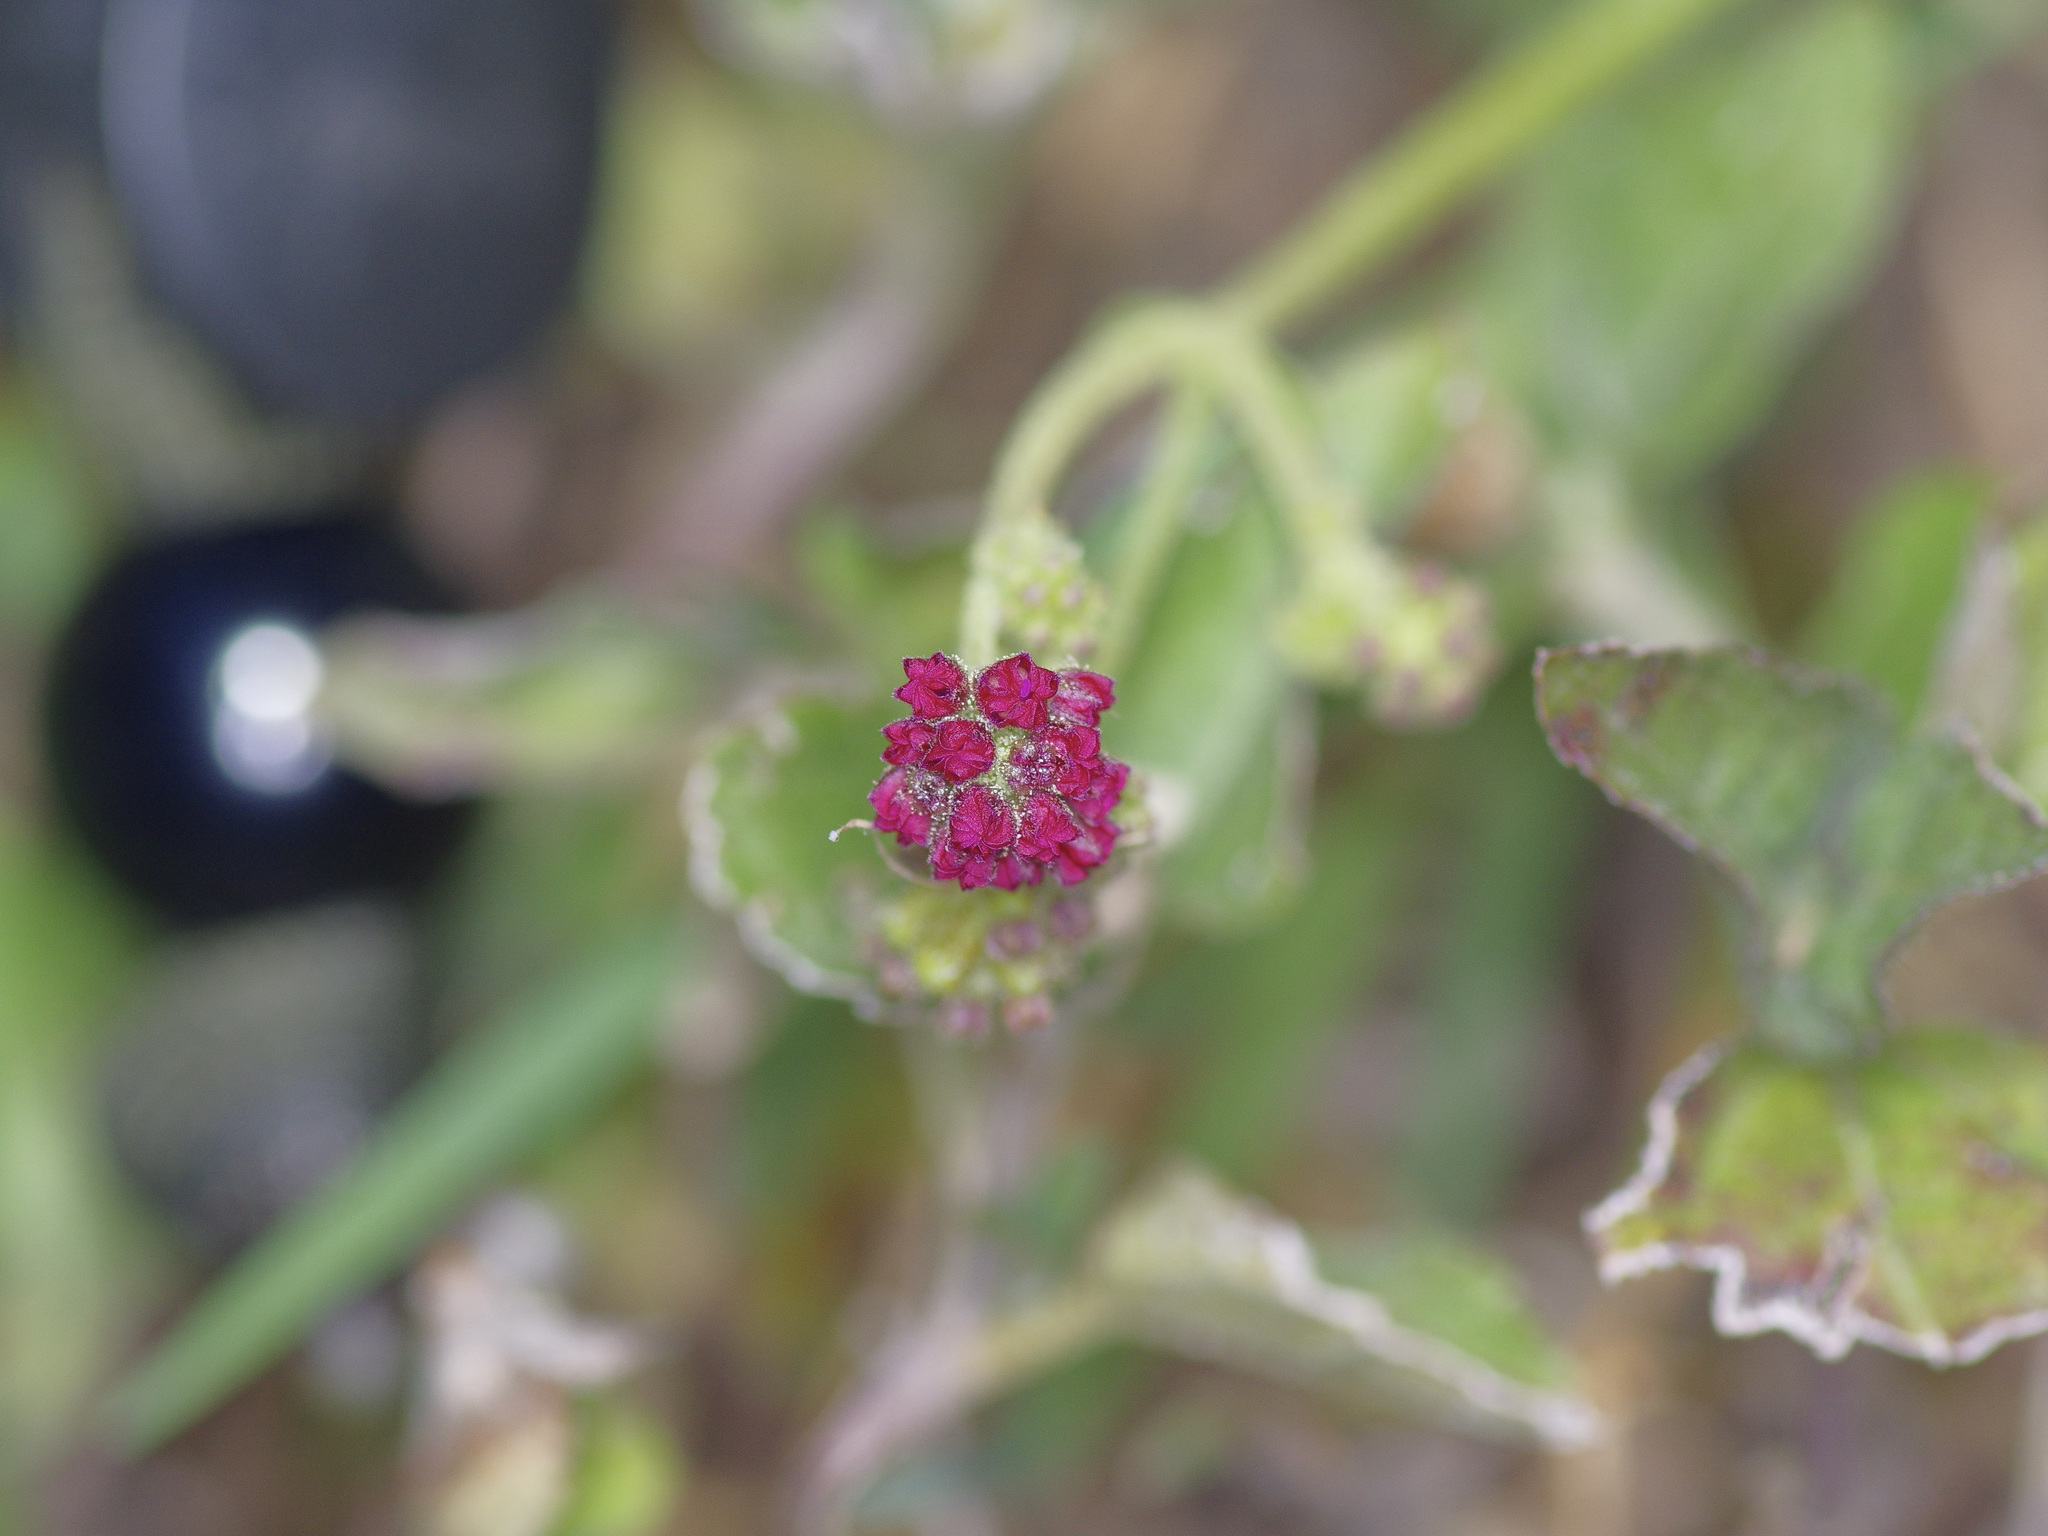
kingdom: Plantae
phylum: Tracheophyta
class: Magnoliopsida
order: Caryophyllales
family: Nyctaginaceae
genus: Boerhavia
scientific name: Boerhavia coccinea
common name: Scarlet spiderling
